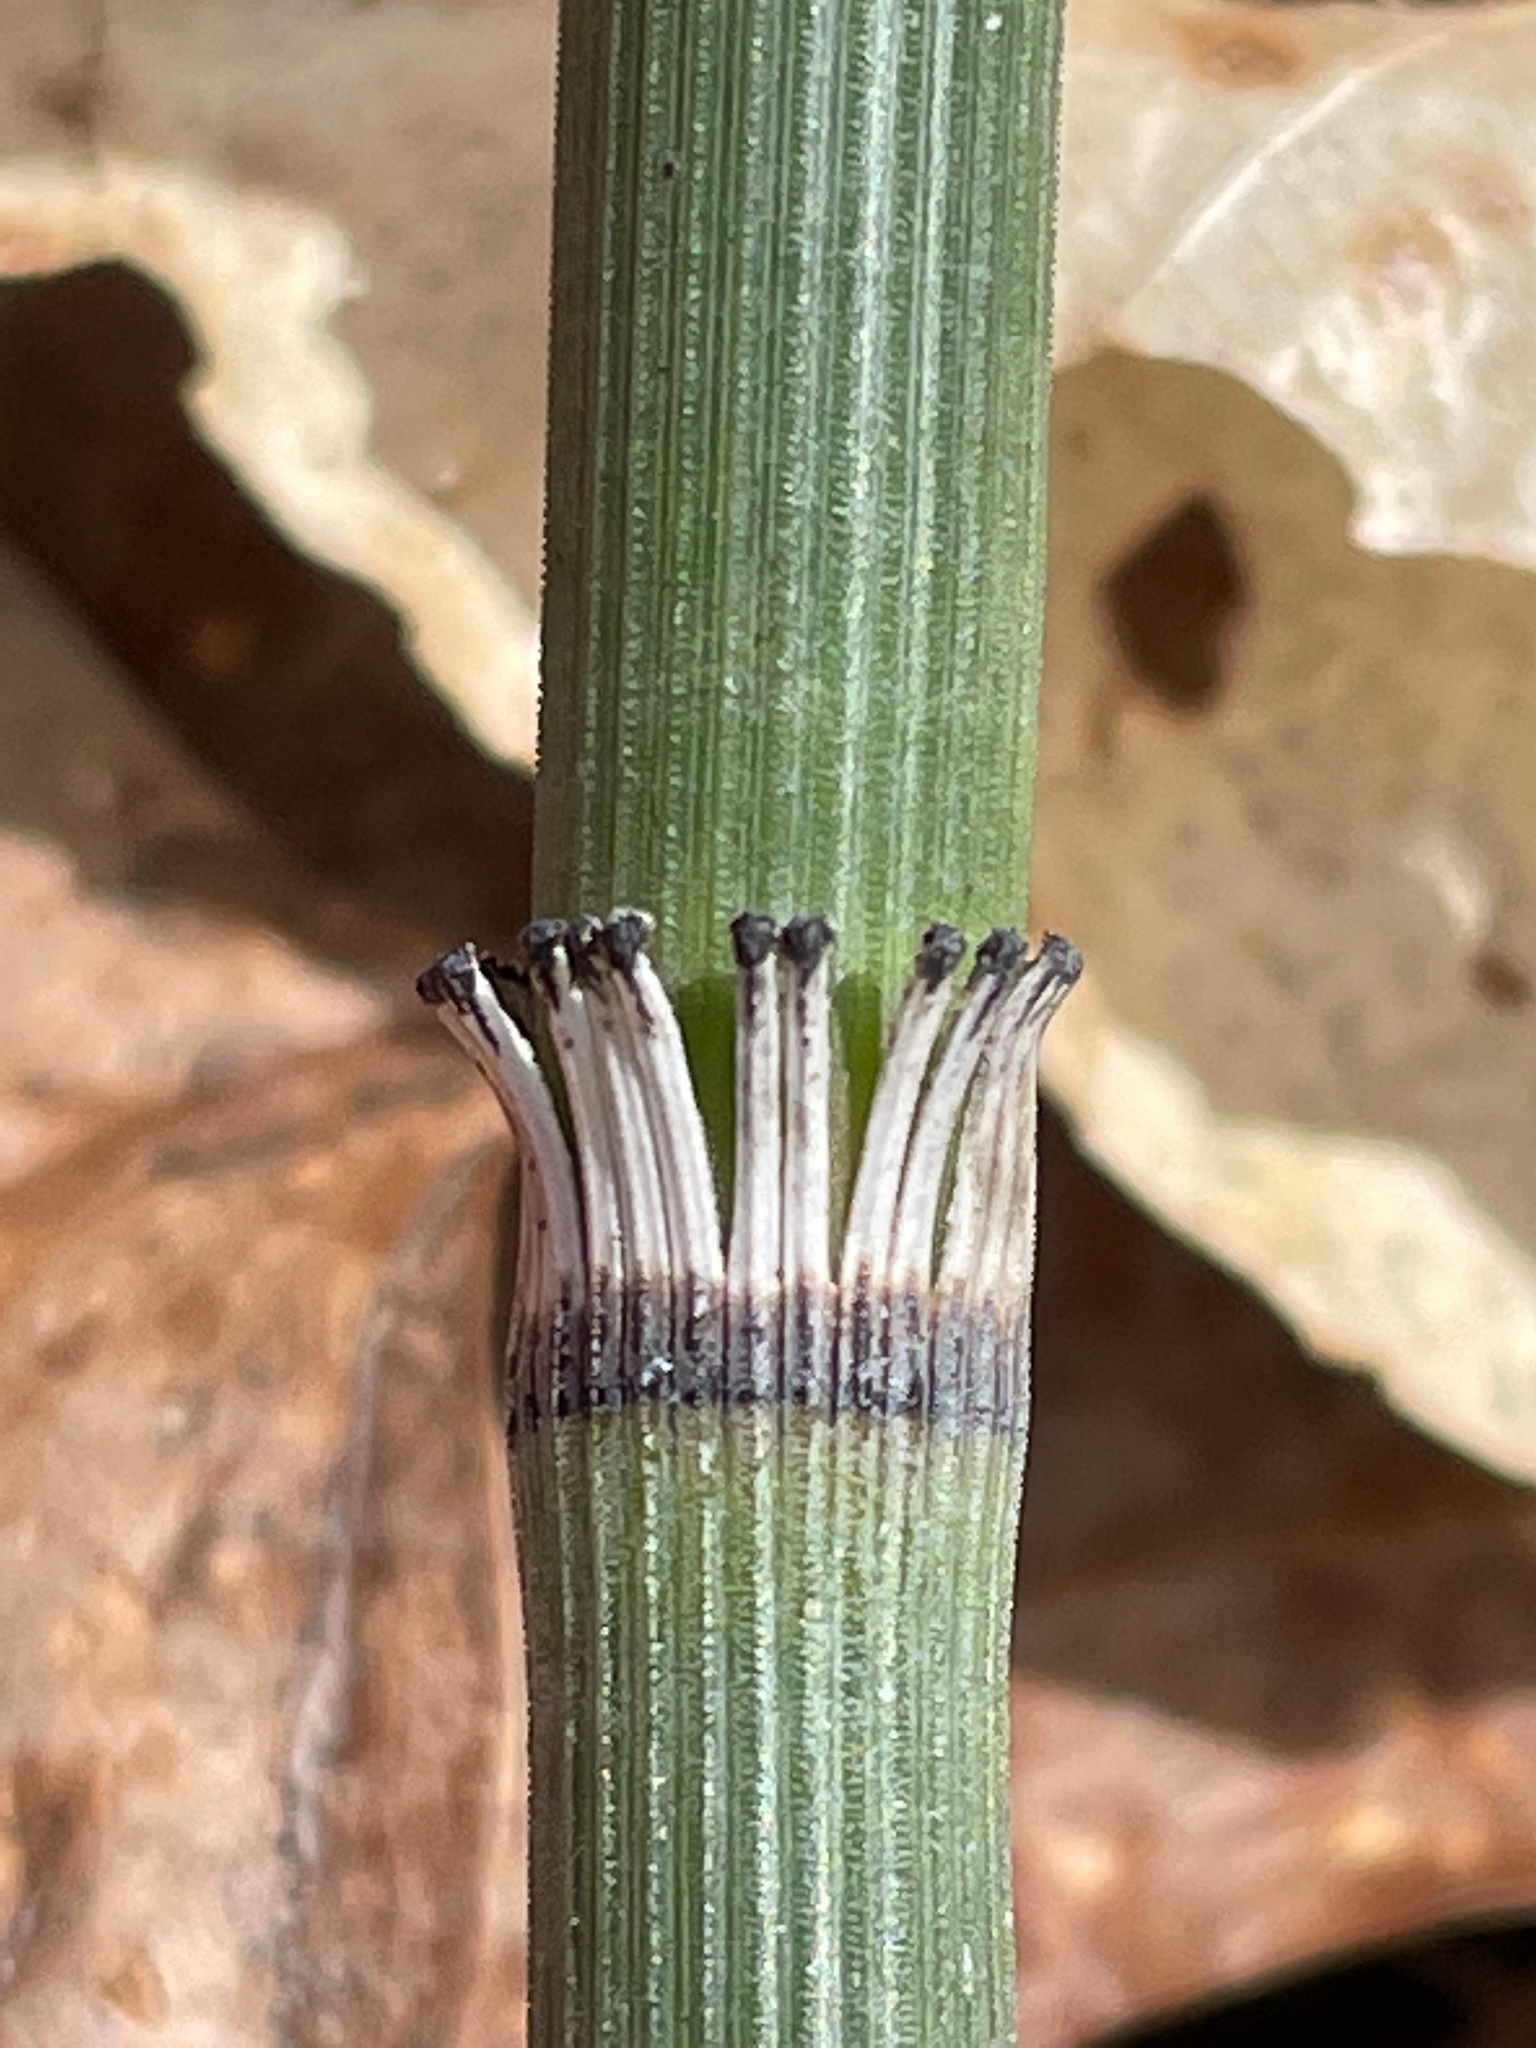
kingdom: Plantae
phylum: Tracheophyta
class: Polypodiopsida
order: Equisetales
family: Equisetaceae
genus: Equisetum
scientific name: Equisetum hyemale
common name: Rough horsetail
